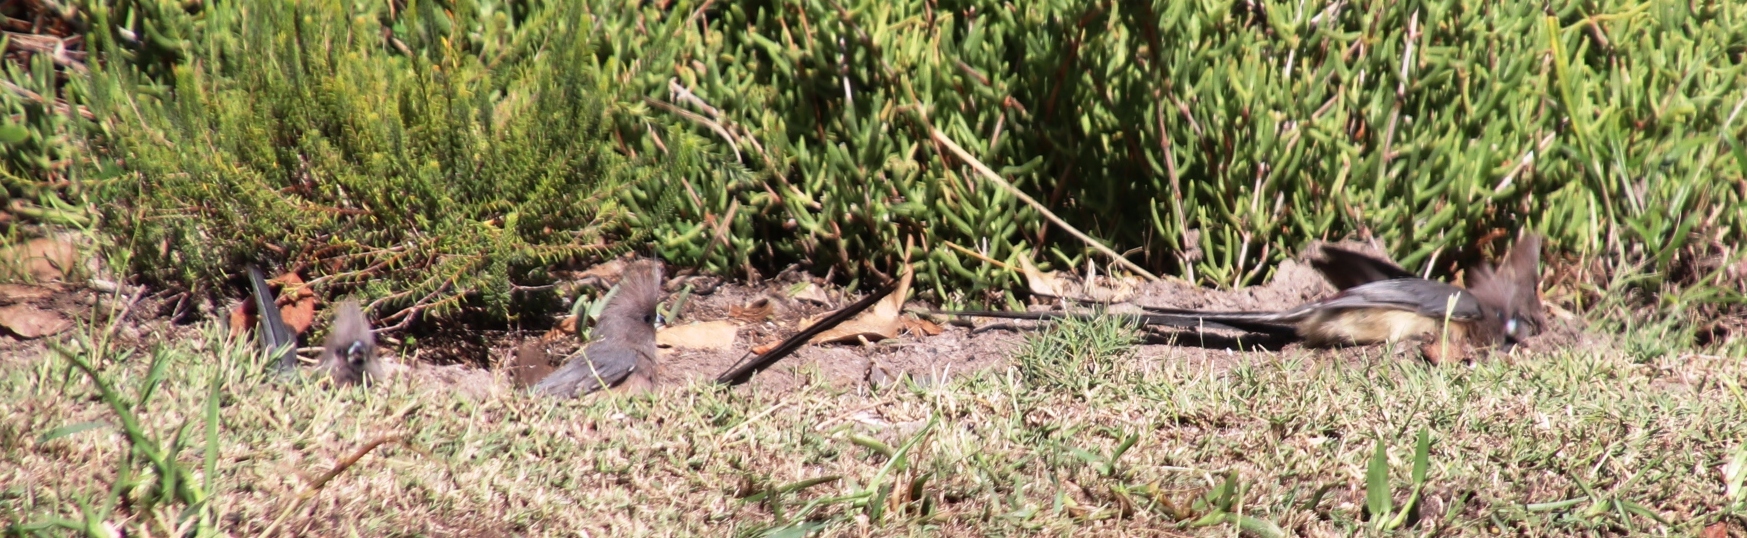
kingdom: Animalia
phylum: Chordata
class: Aves
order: Coliiformes
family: Coliidae
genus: Colius
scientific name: Colius colius
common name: White-backed mousebird
